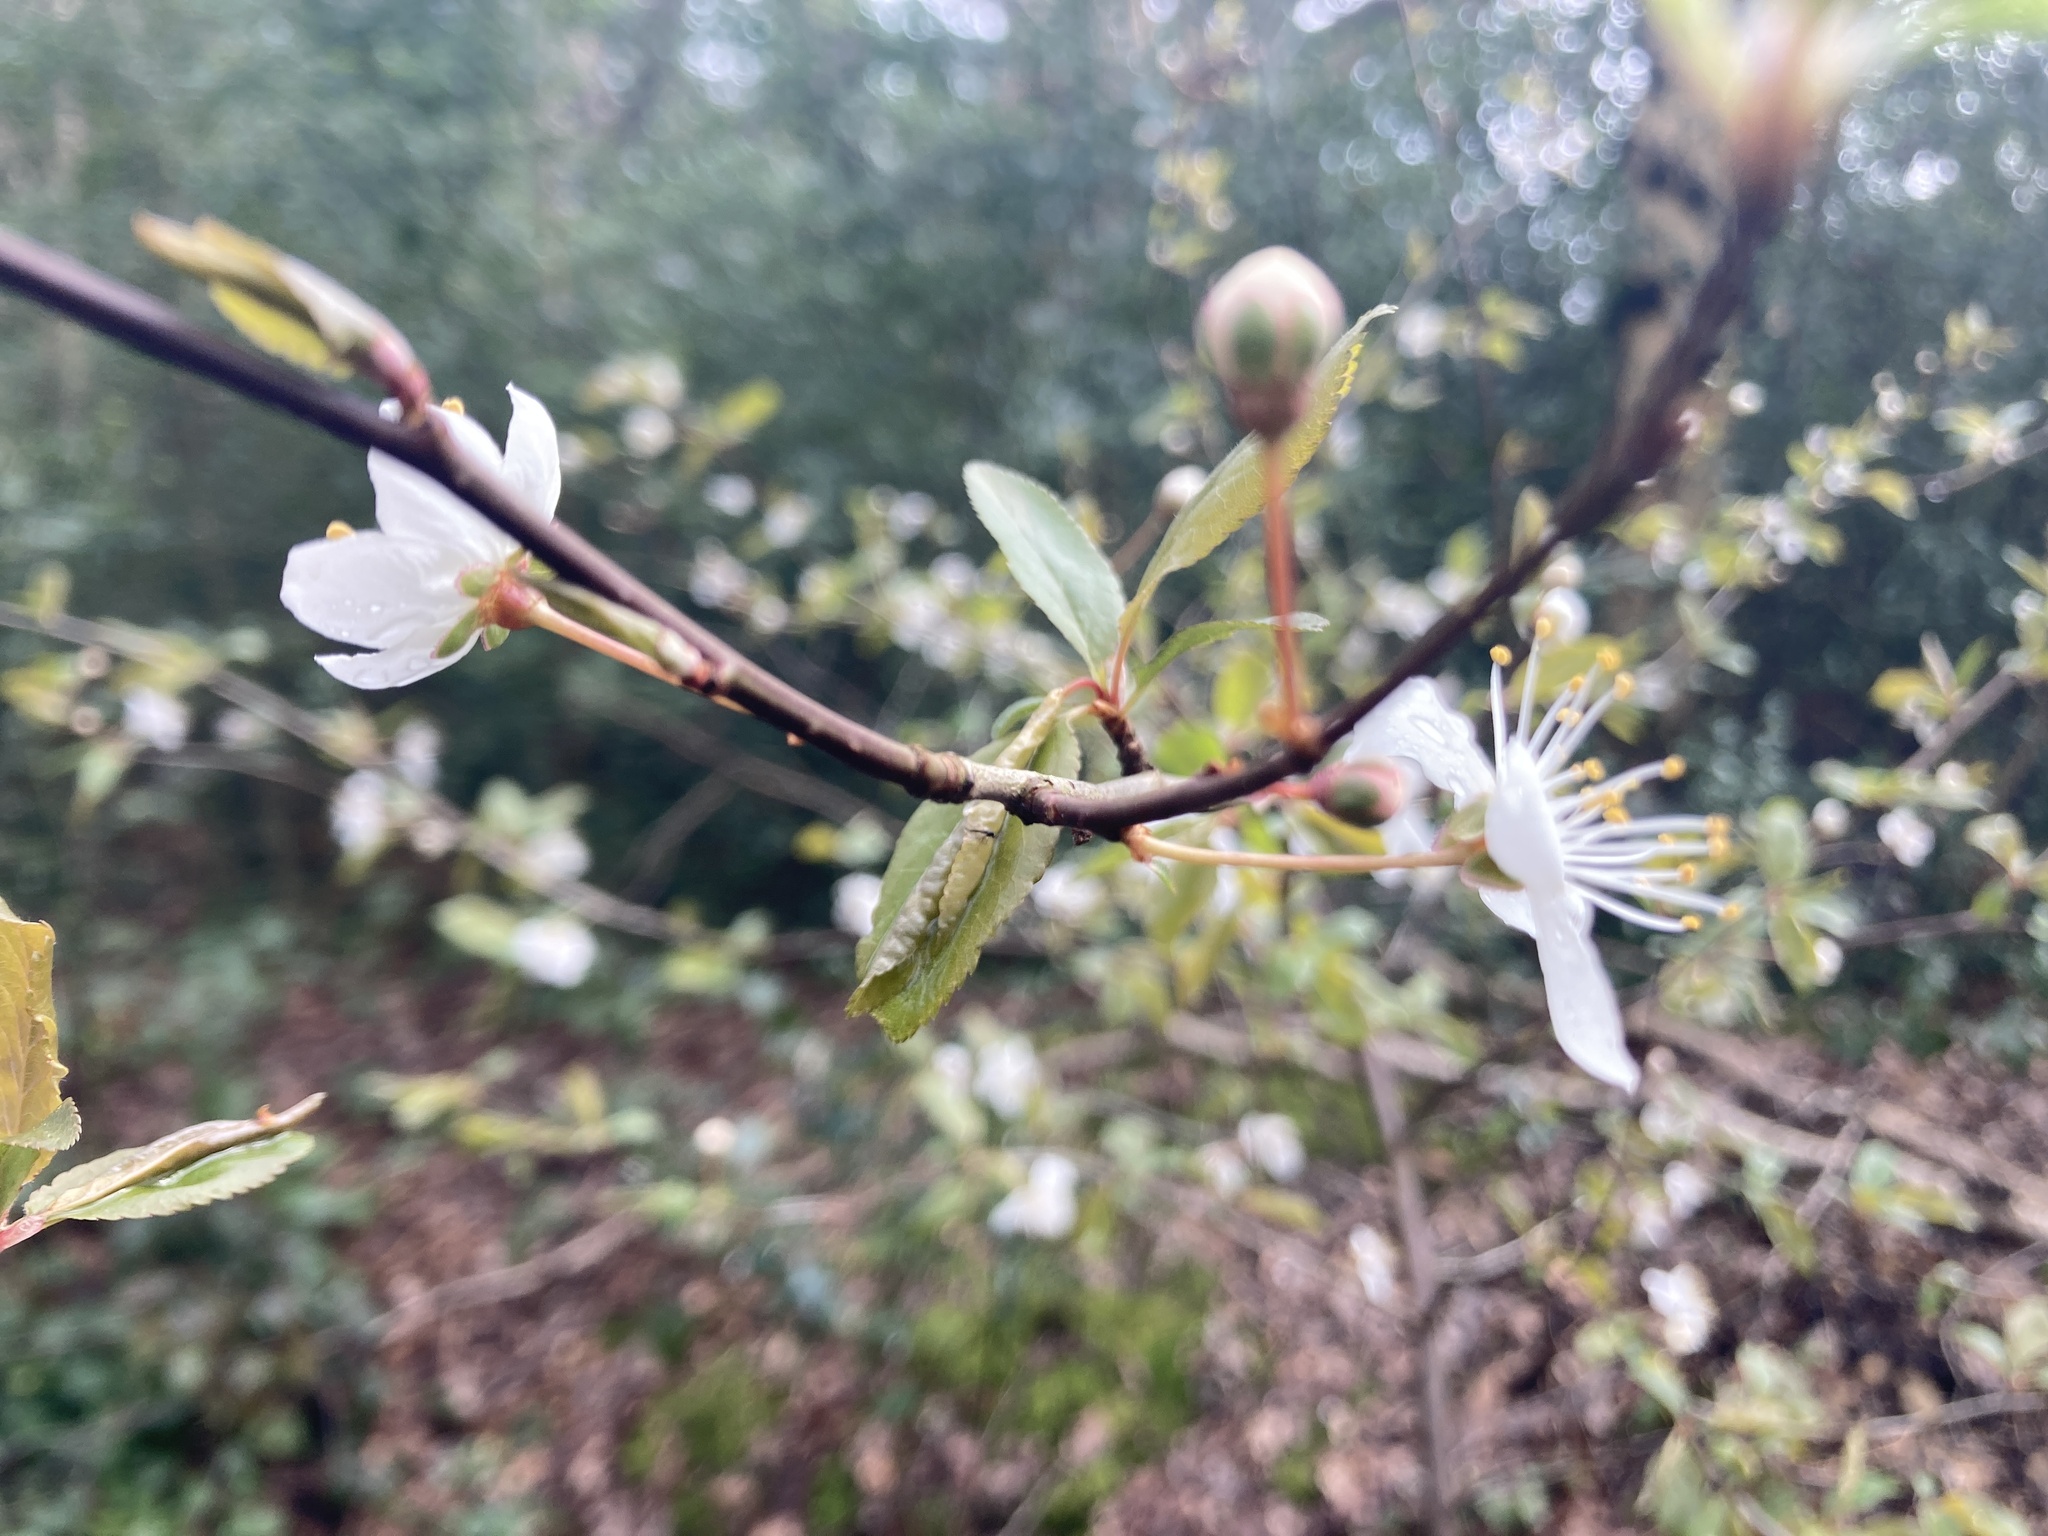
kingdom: Plantae
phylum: Tracheophyta
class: Magnoliopsida
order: Rosales
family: Rosaceae
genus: Prunus
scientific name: Prunus cerasifera
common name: Cherry plum
